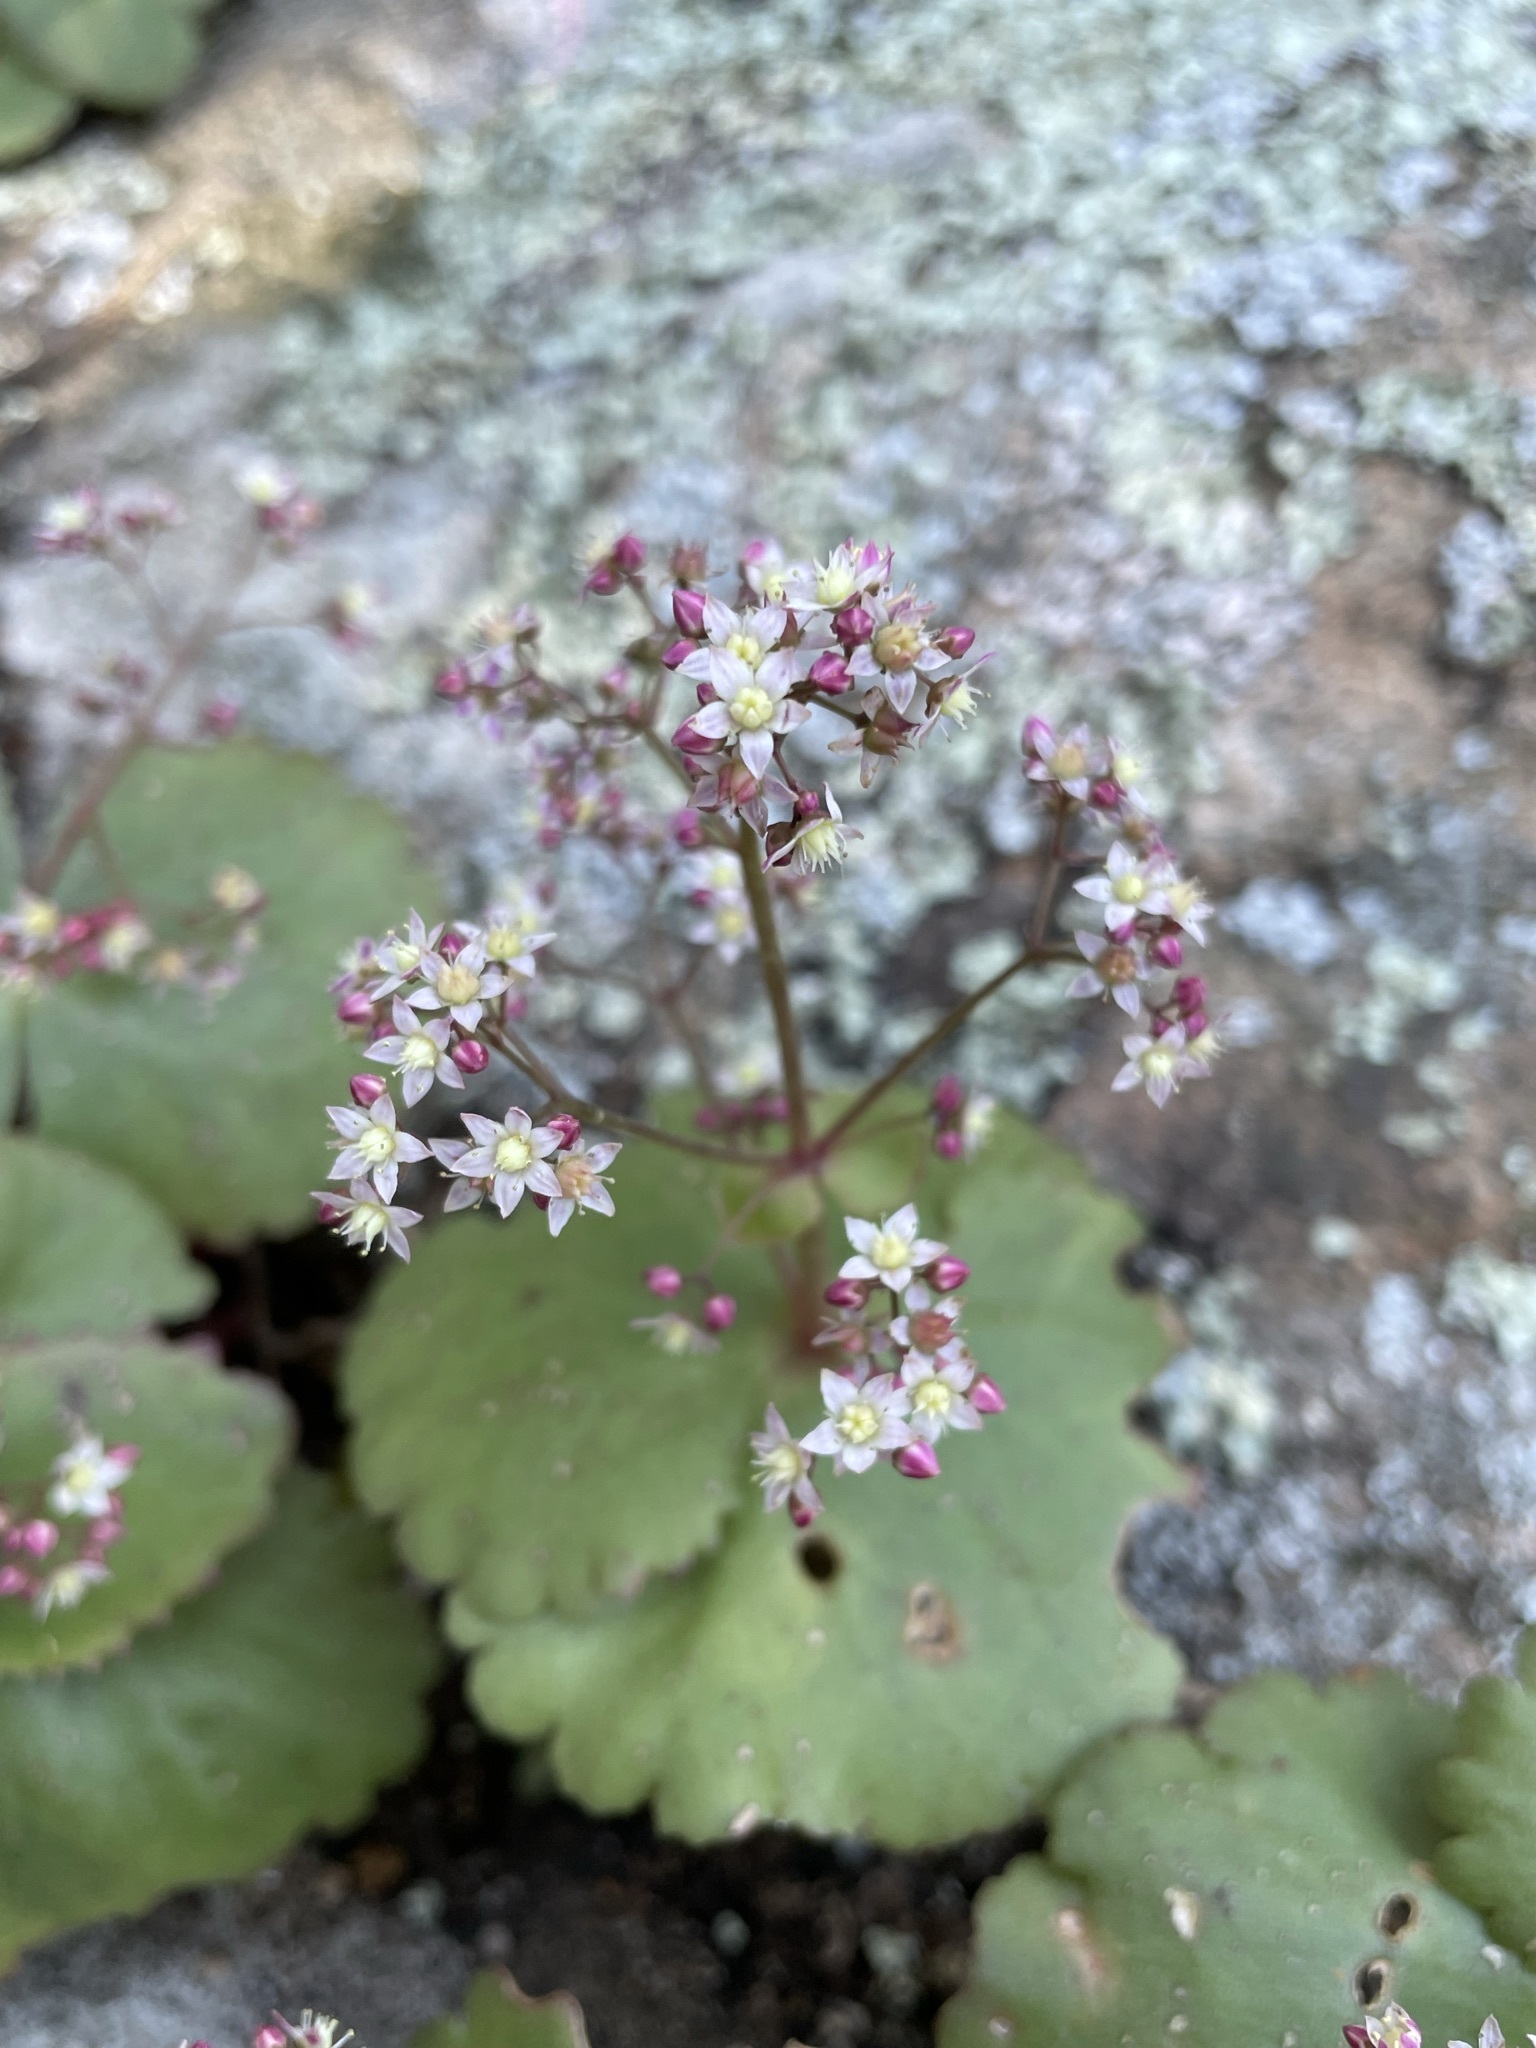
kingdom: Plantae
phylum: Tracheophyta
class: Magnoliopsida
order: Saxifragales
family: Crassulaceae
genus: Crassula
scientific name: Crassula umbella
